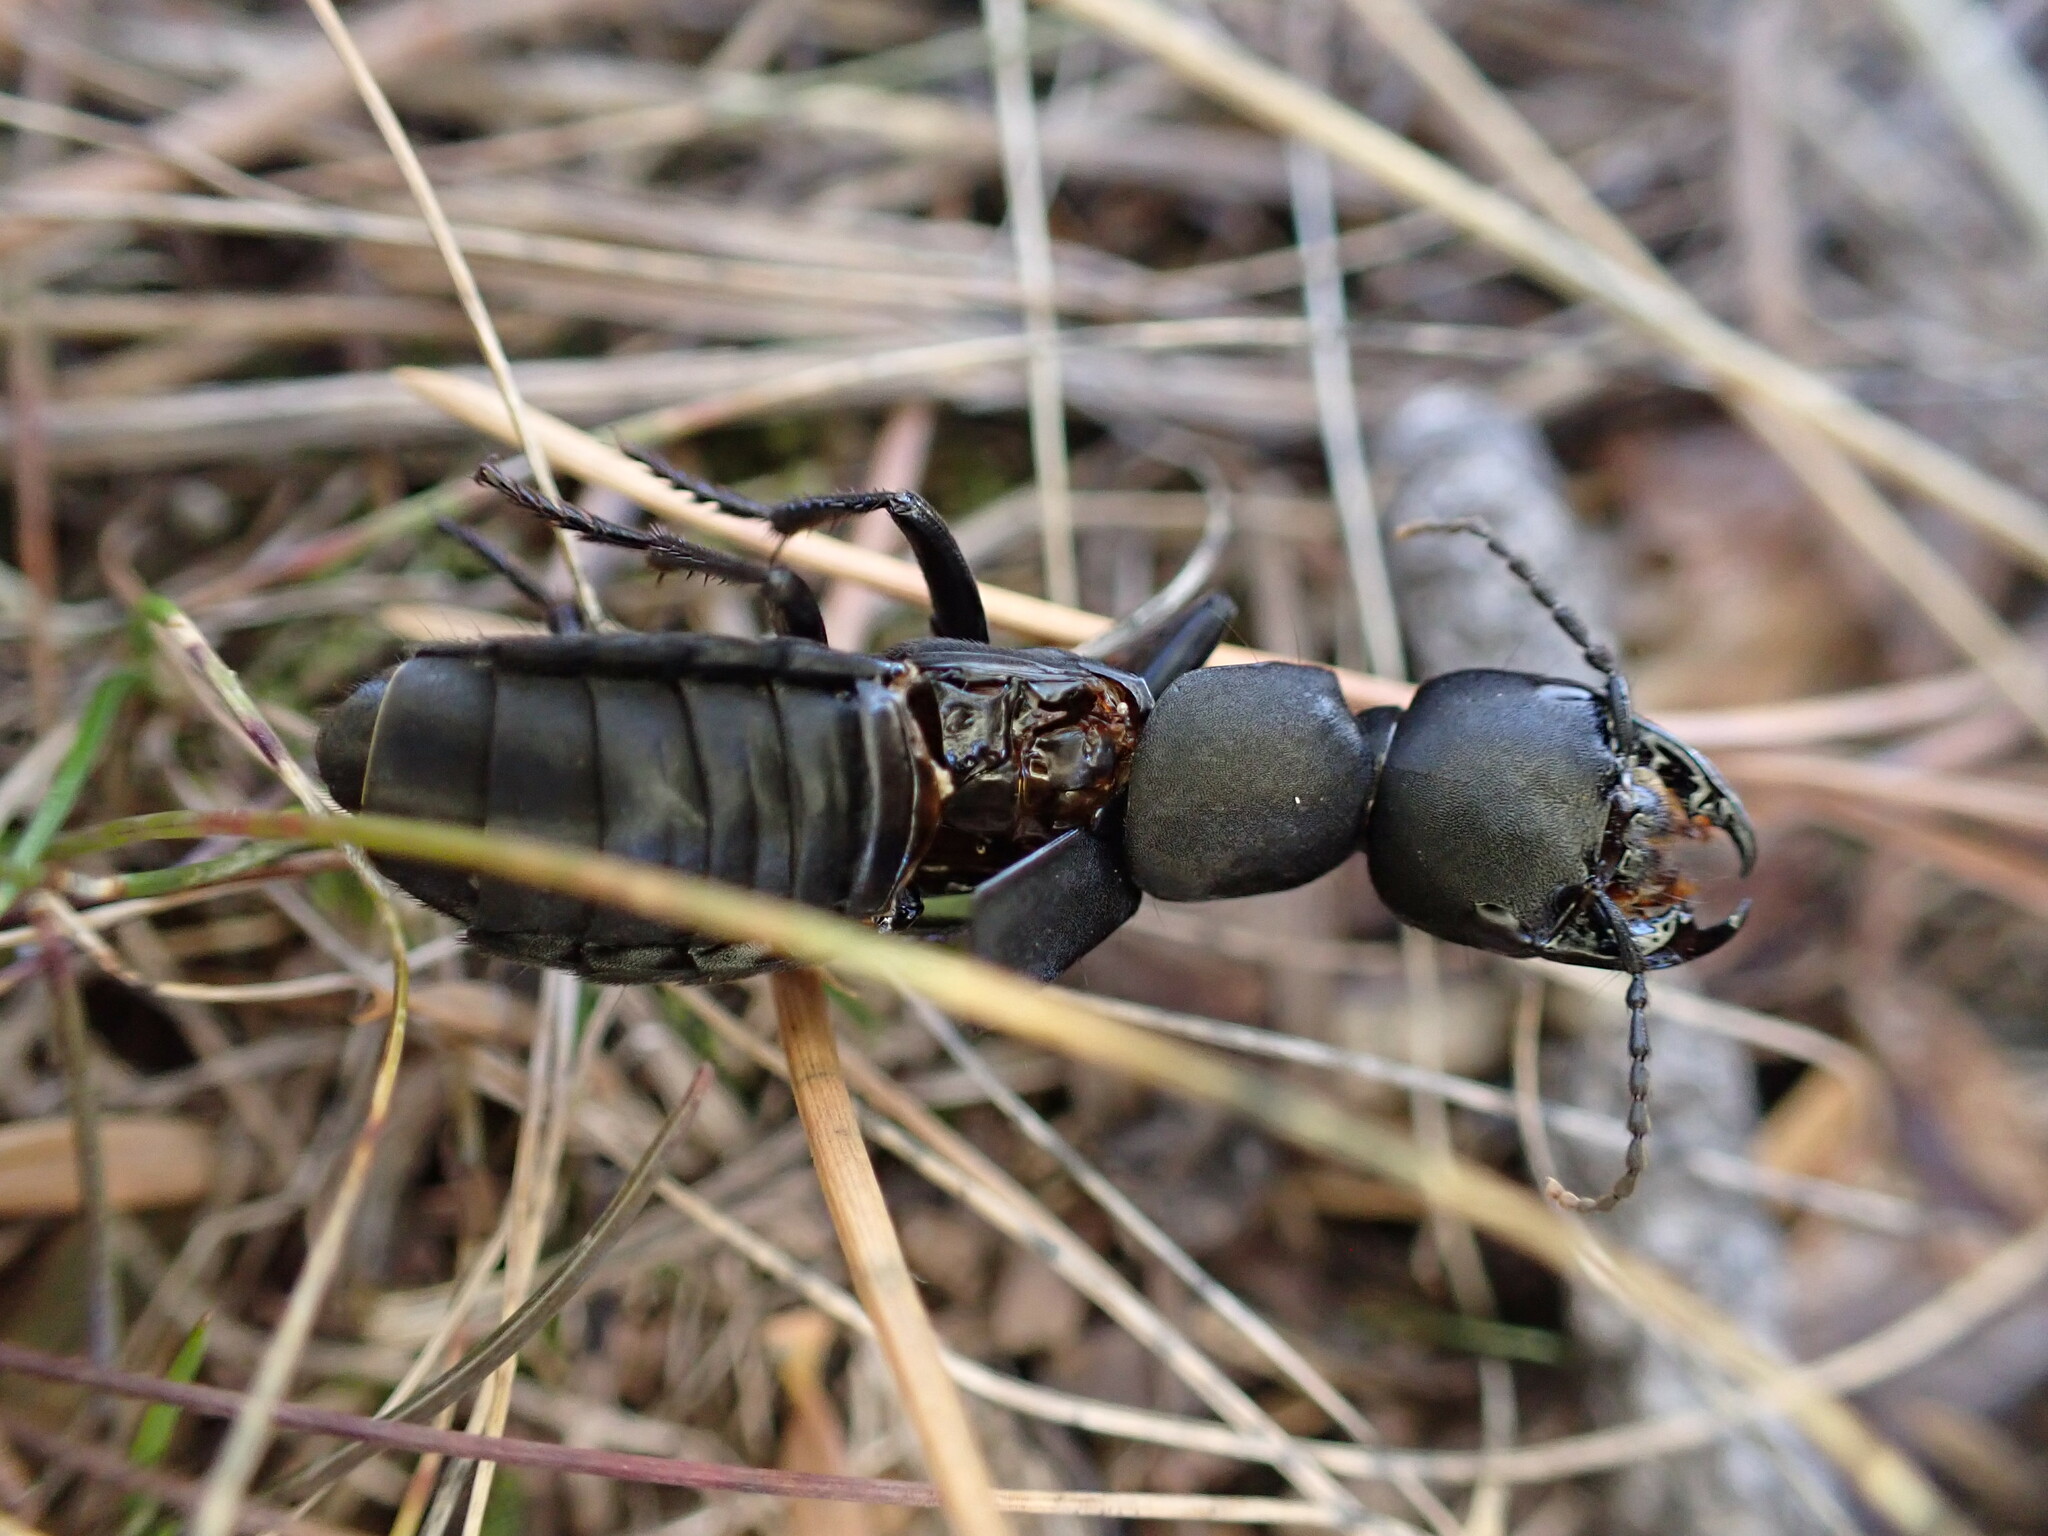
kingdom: Animalia
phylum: Arthropoda
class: Insecta
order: Coleoptera
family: Staphylinidae
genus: Ocypus
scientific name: Ocypus olens
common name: Devil's coach-horse
